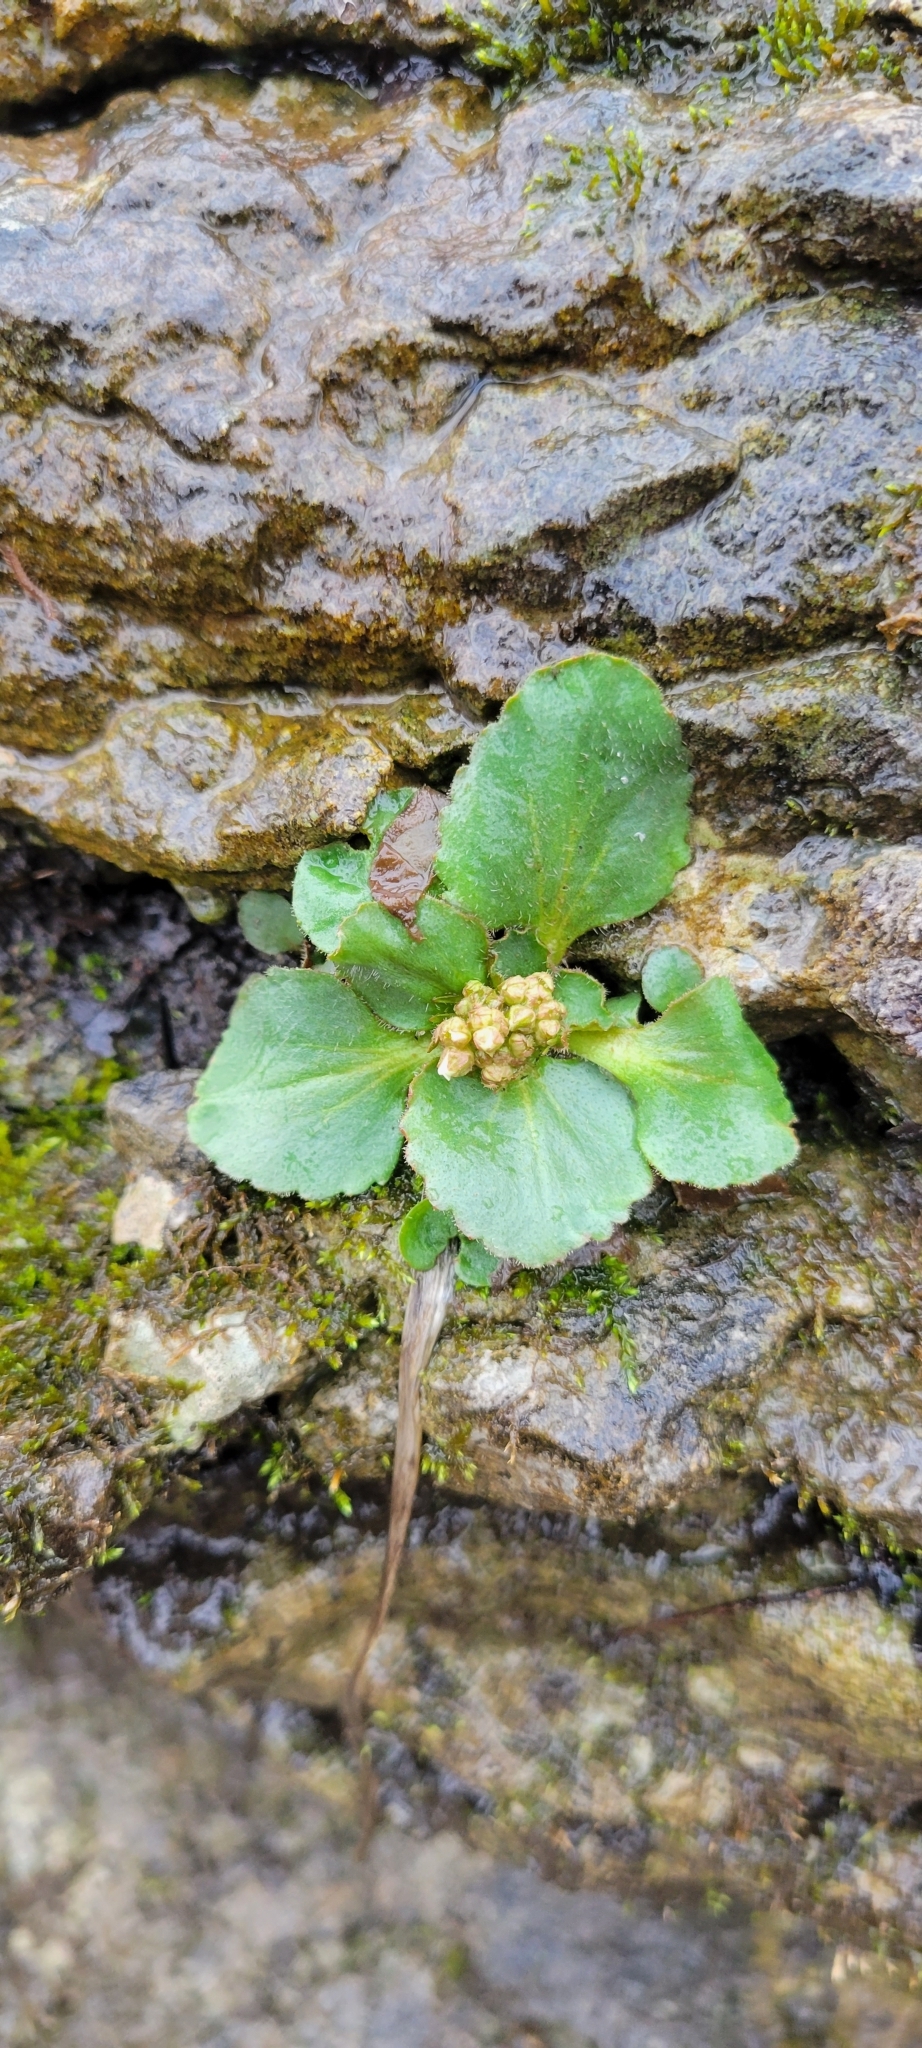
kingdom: Plantae
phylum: Tracheophyta
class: Magnoliopsida
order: Saxifragales
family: Saxifragaceae
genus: Micranthes
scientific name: Micranthes virginiensis
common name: Early saxifrage
